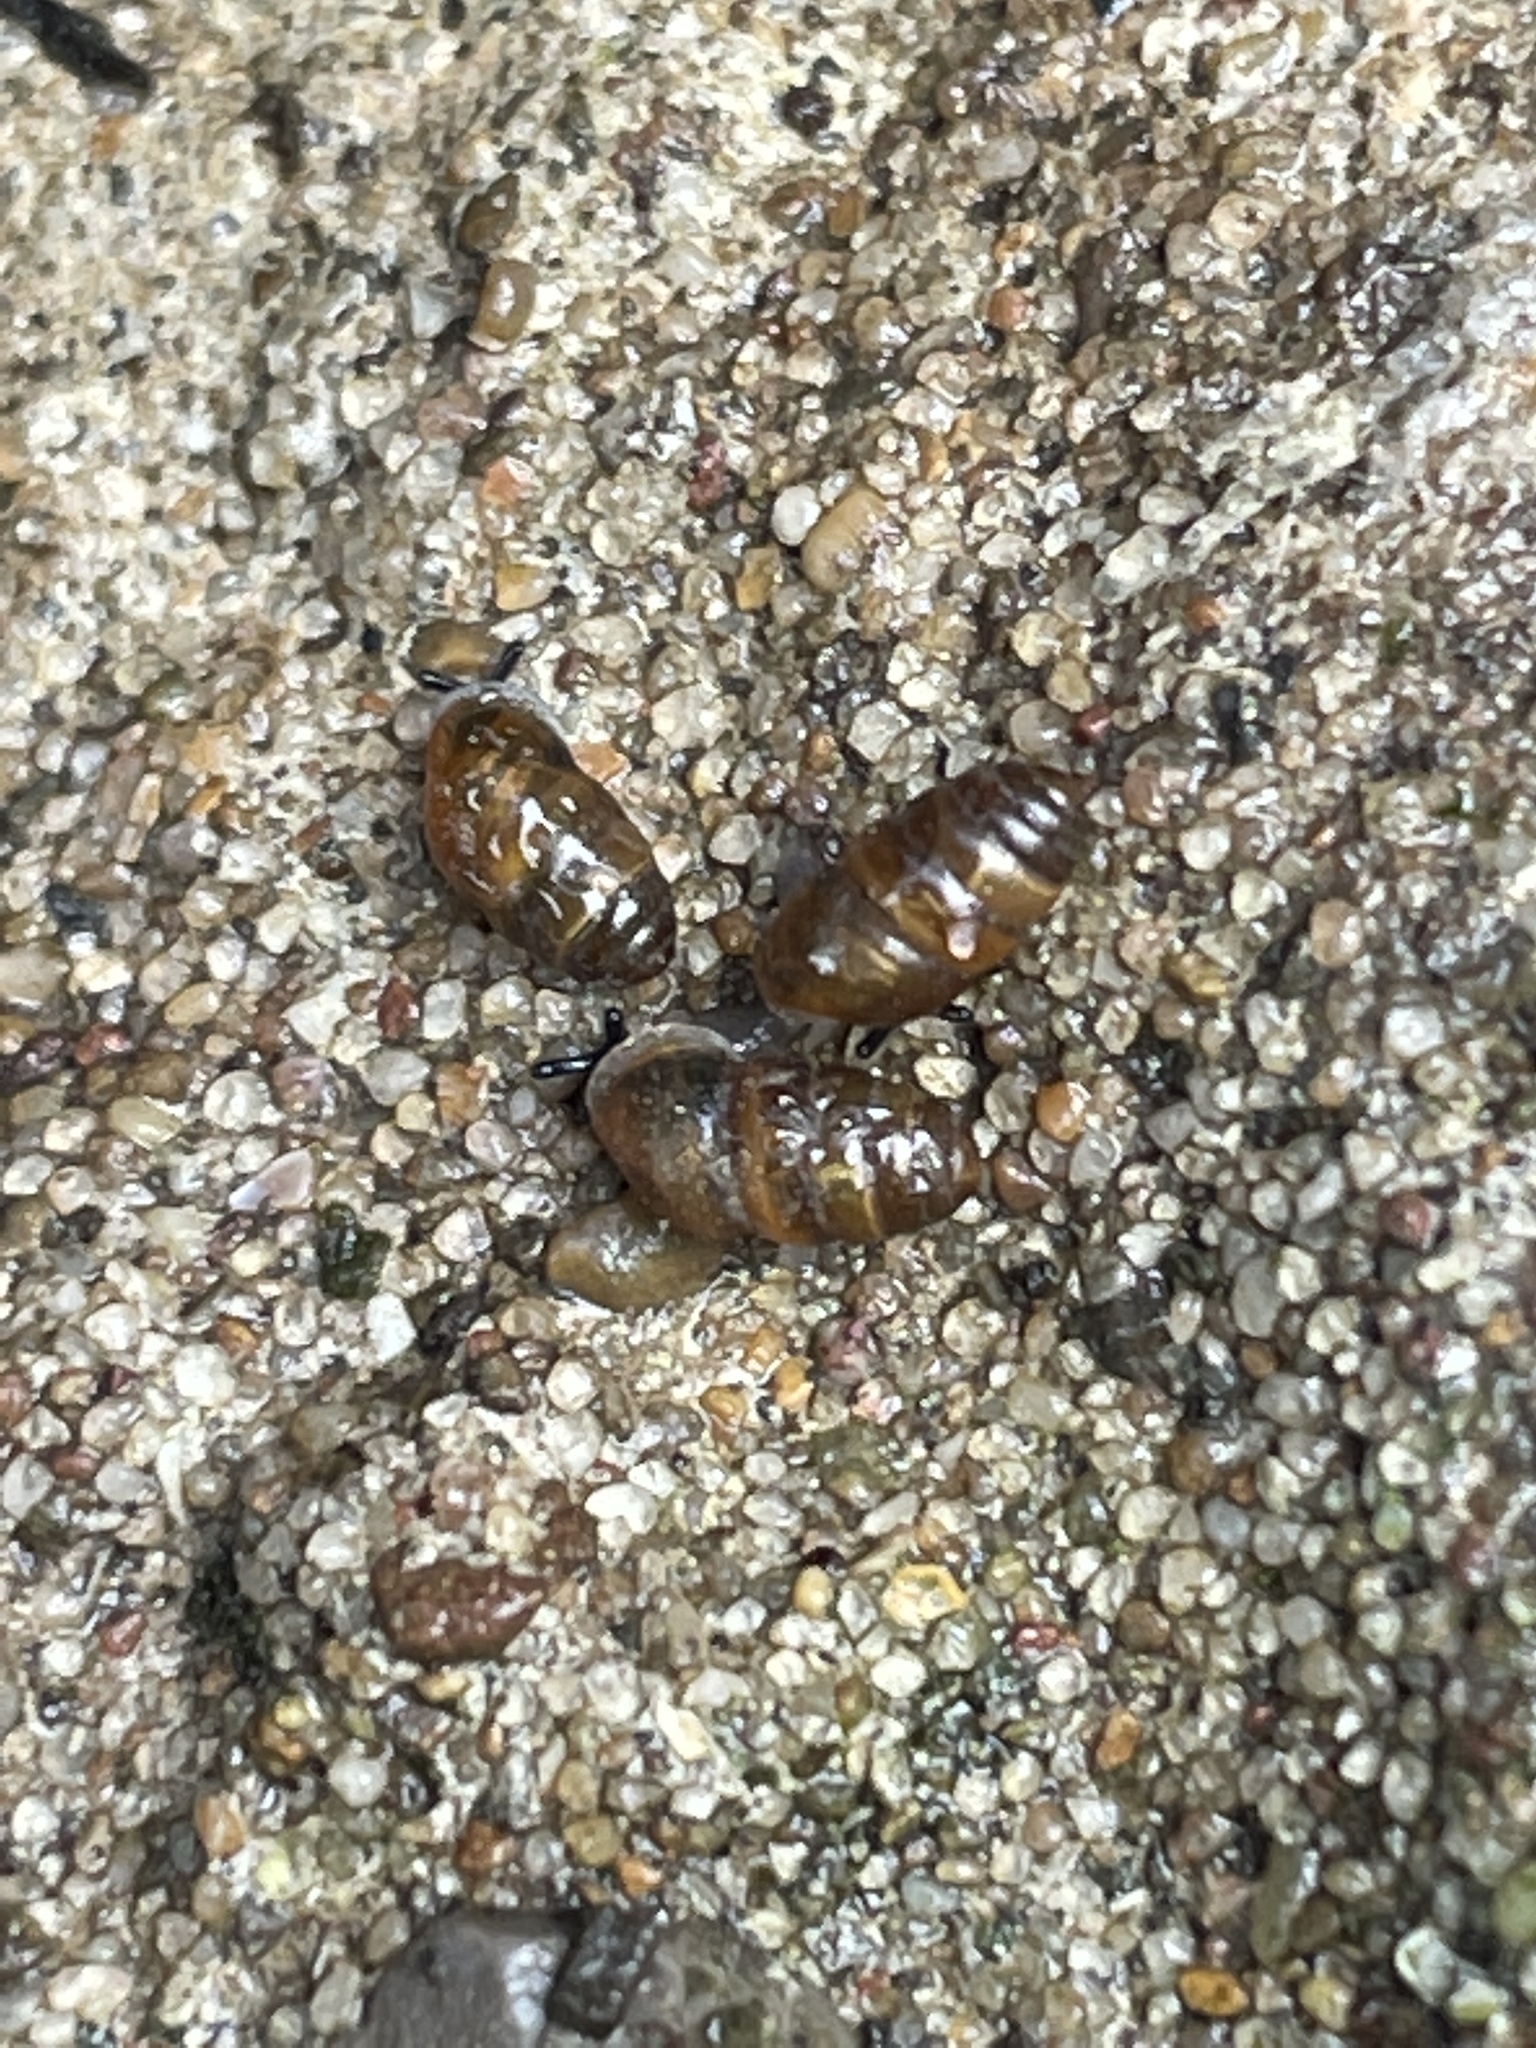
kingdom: Animalia
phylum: Mollusca
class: Gastropoda
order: Stylommatophora
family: Lauriidae
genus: Lauria
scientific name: Lauria cylindracea
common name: Common chrysalis snail
